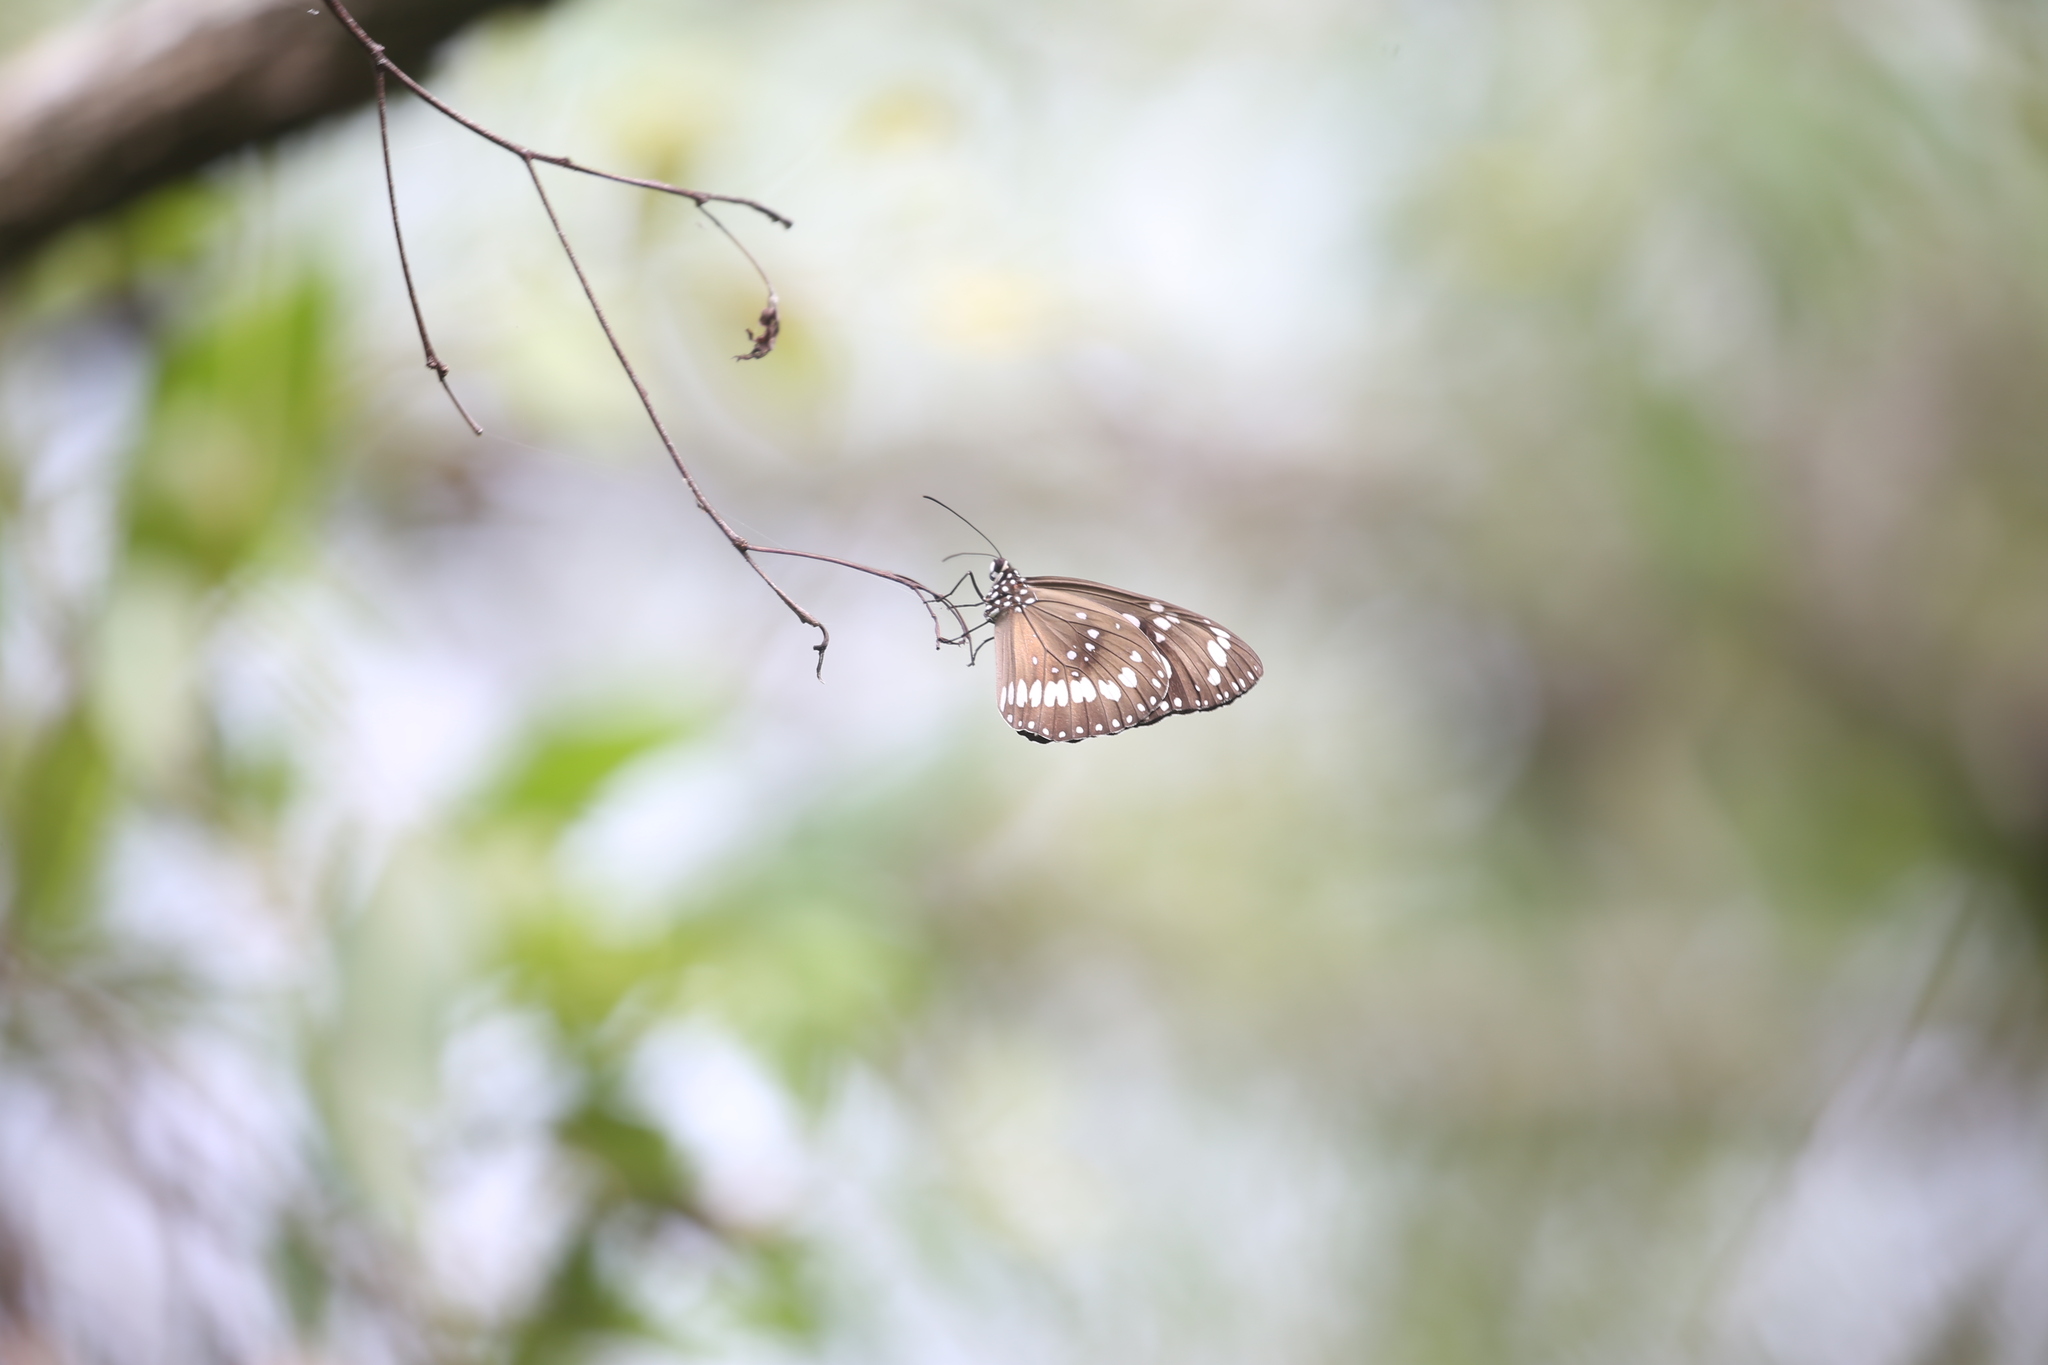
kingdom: Animalia
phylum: Arthropoda
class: Insecta
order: Lepidoptera
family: Nymphalidae
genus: Euploea
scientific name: Euploea core
